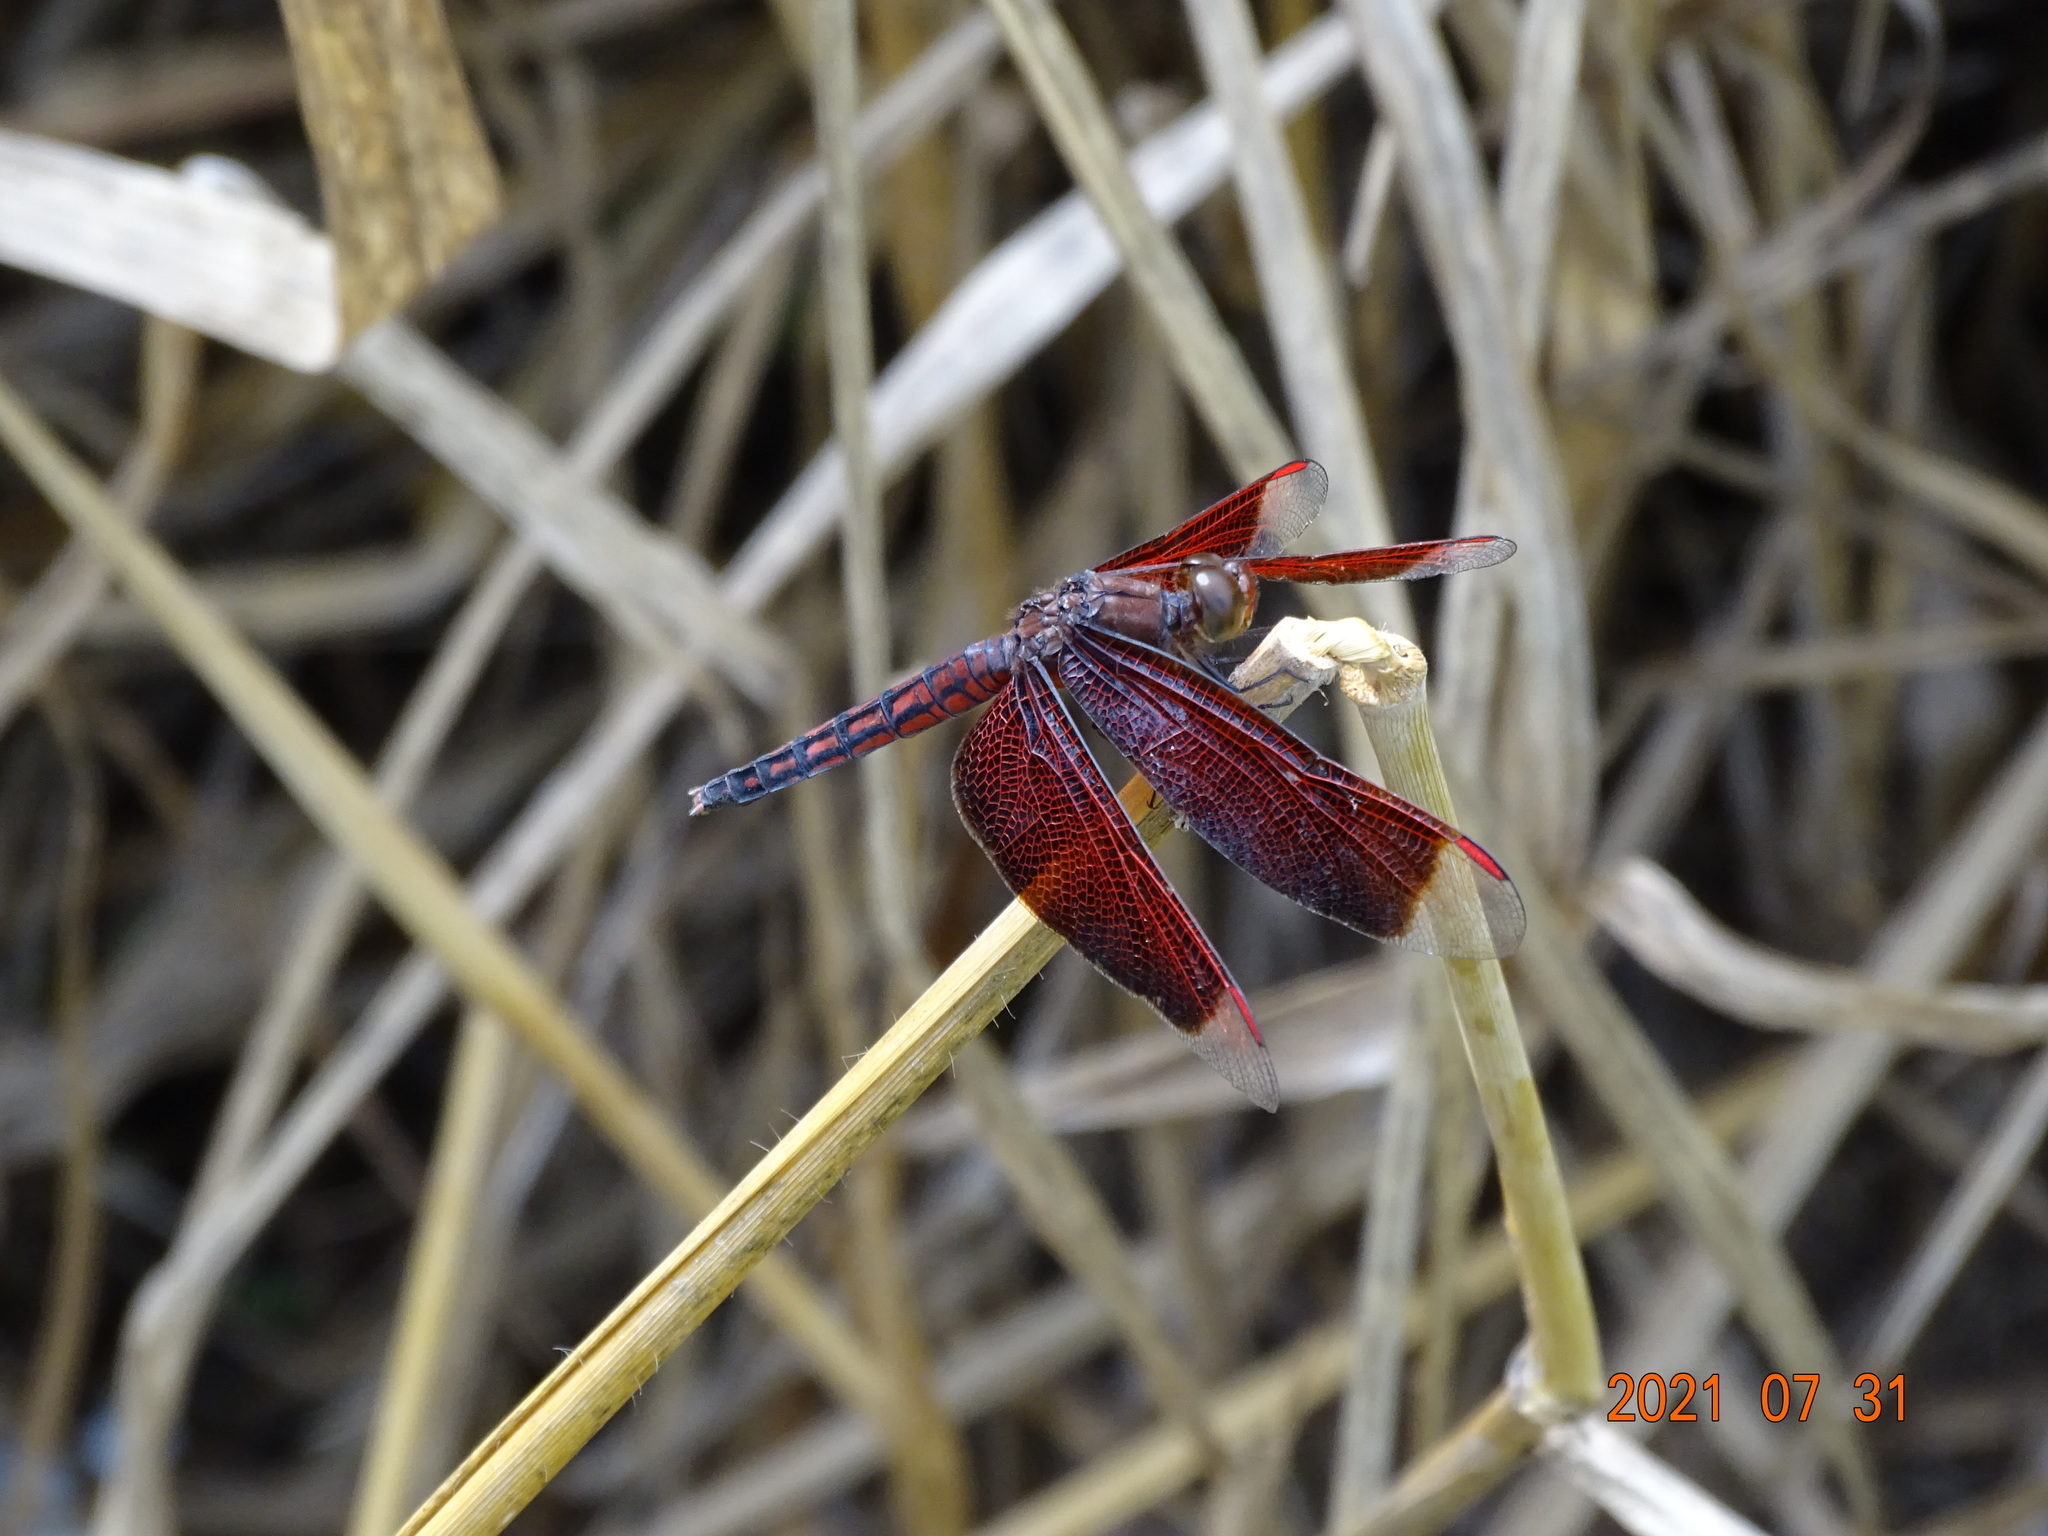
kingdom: Animalia
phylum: Arthropoda
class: Insecta
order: Odonata
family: Libellulidae
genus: Neurothemis
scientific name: Neurothemis taiwanensis
